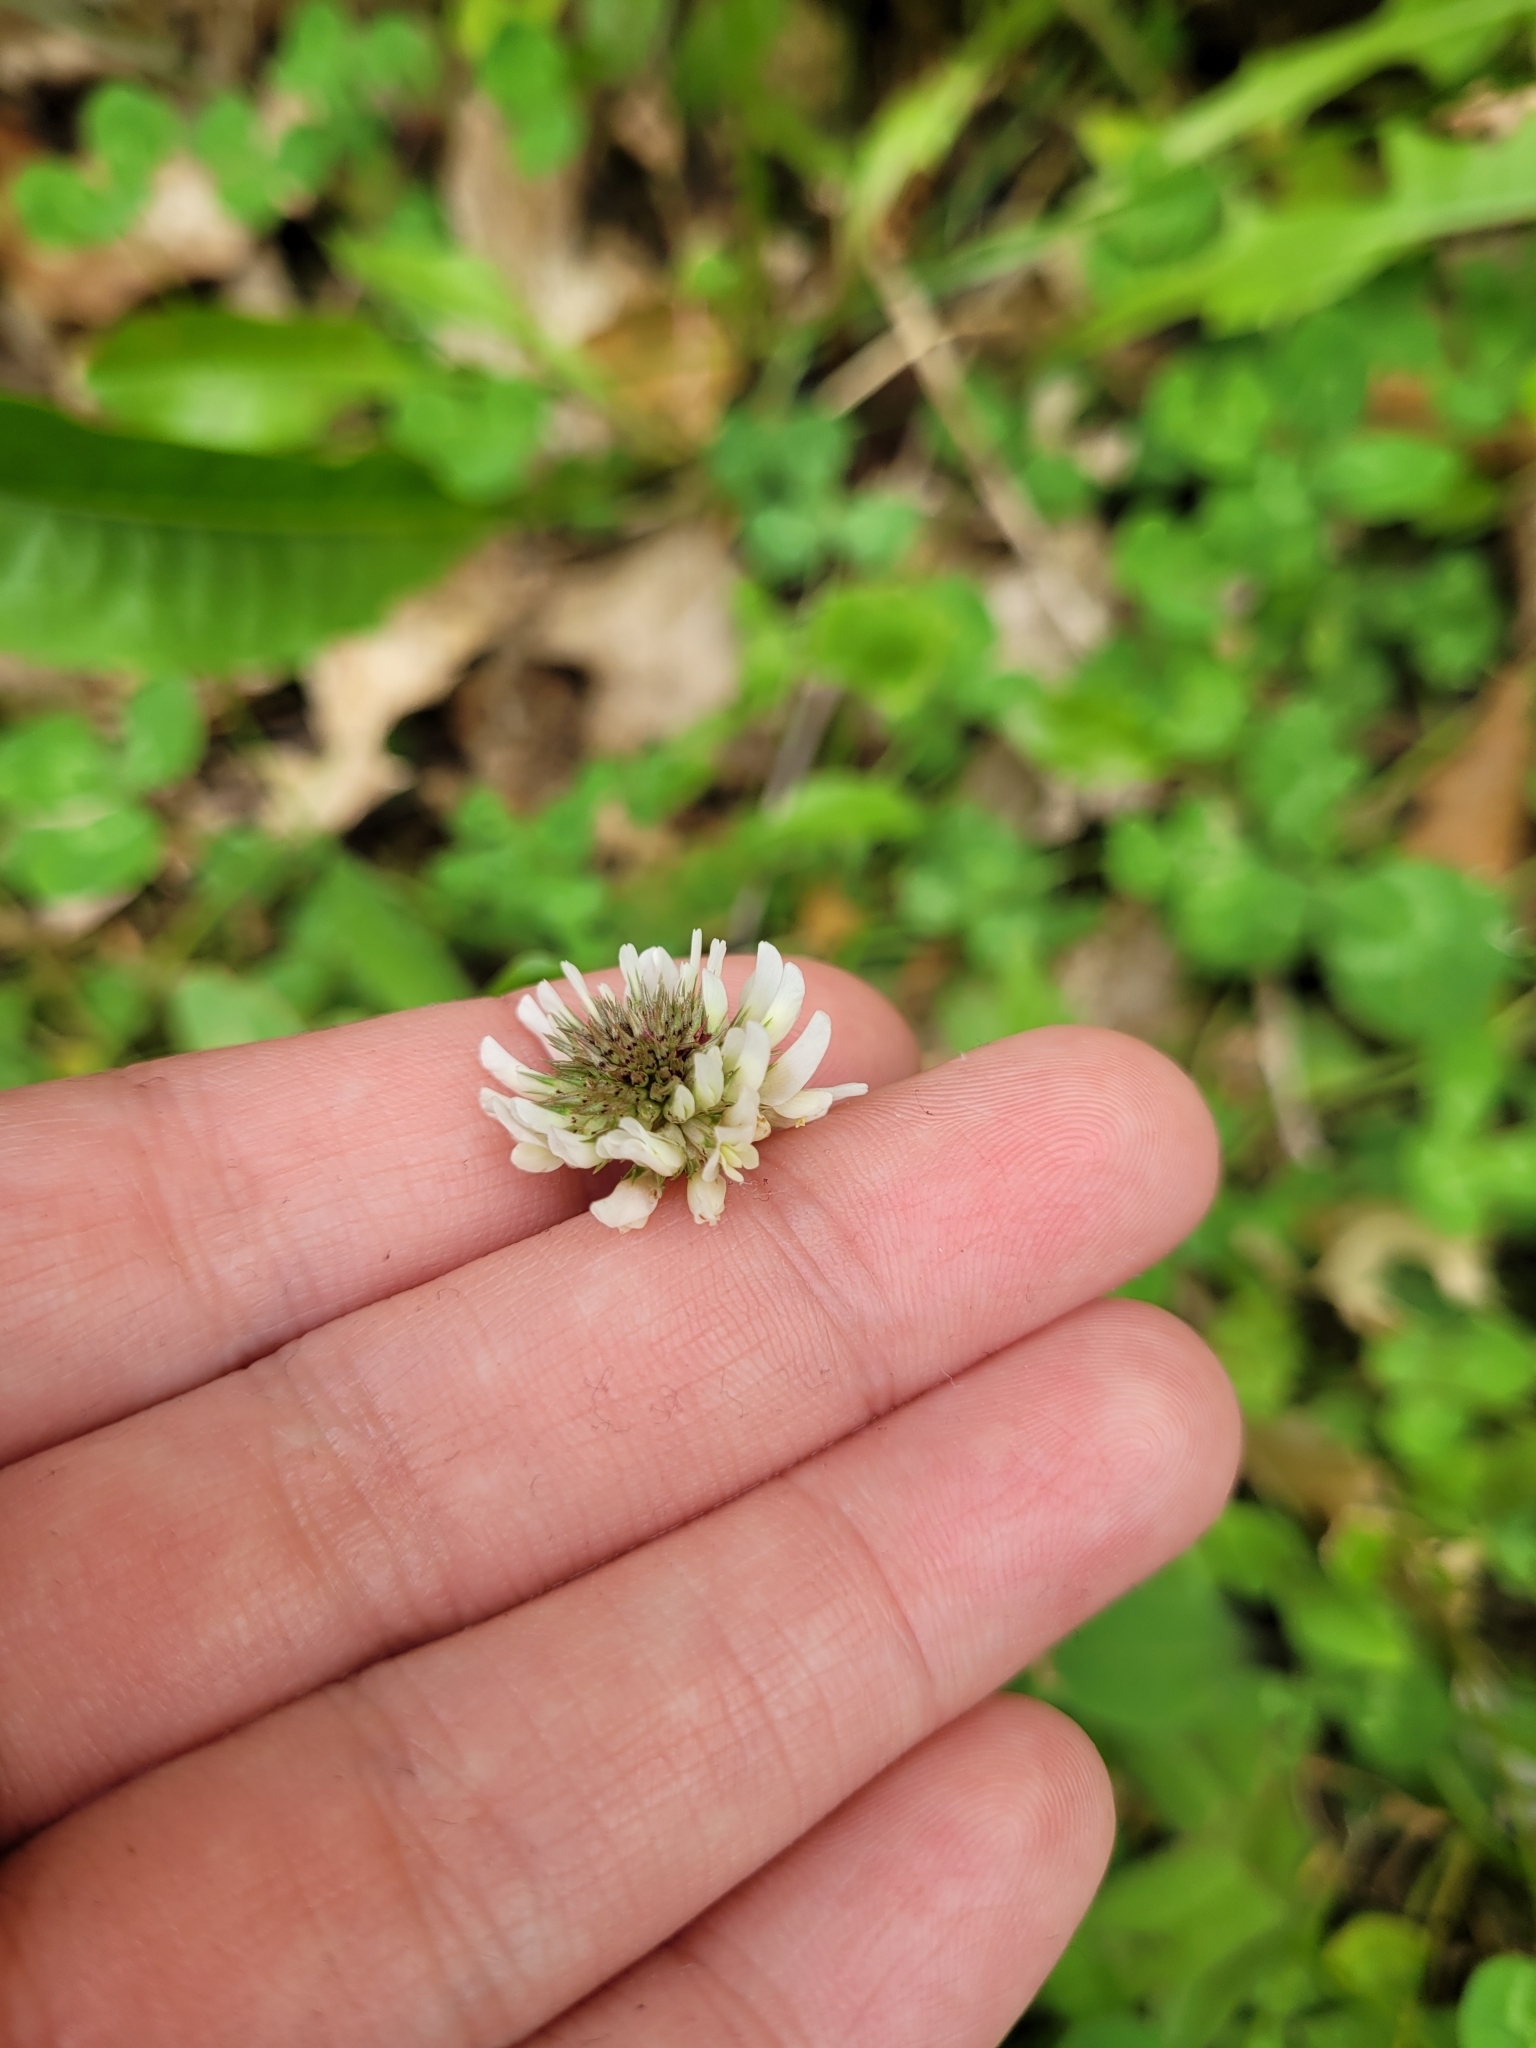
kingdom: Plantae
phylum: Tracheophyta
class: Magnoliopsida
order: Fabales
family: Fabaceae
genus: Trifolium
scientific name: Trifolium repens
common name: White clover
